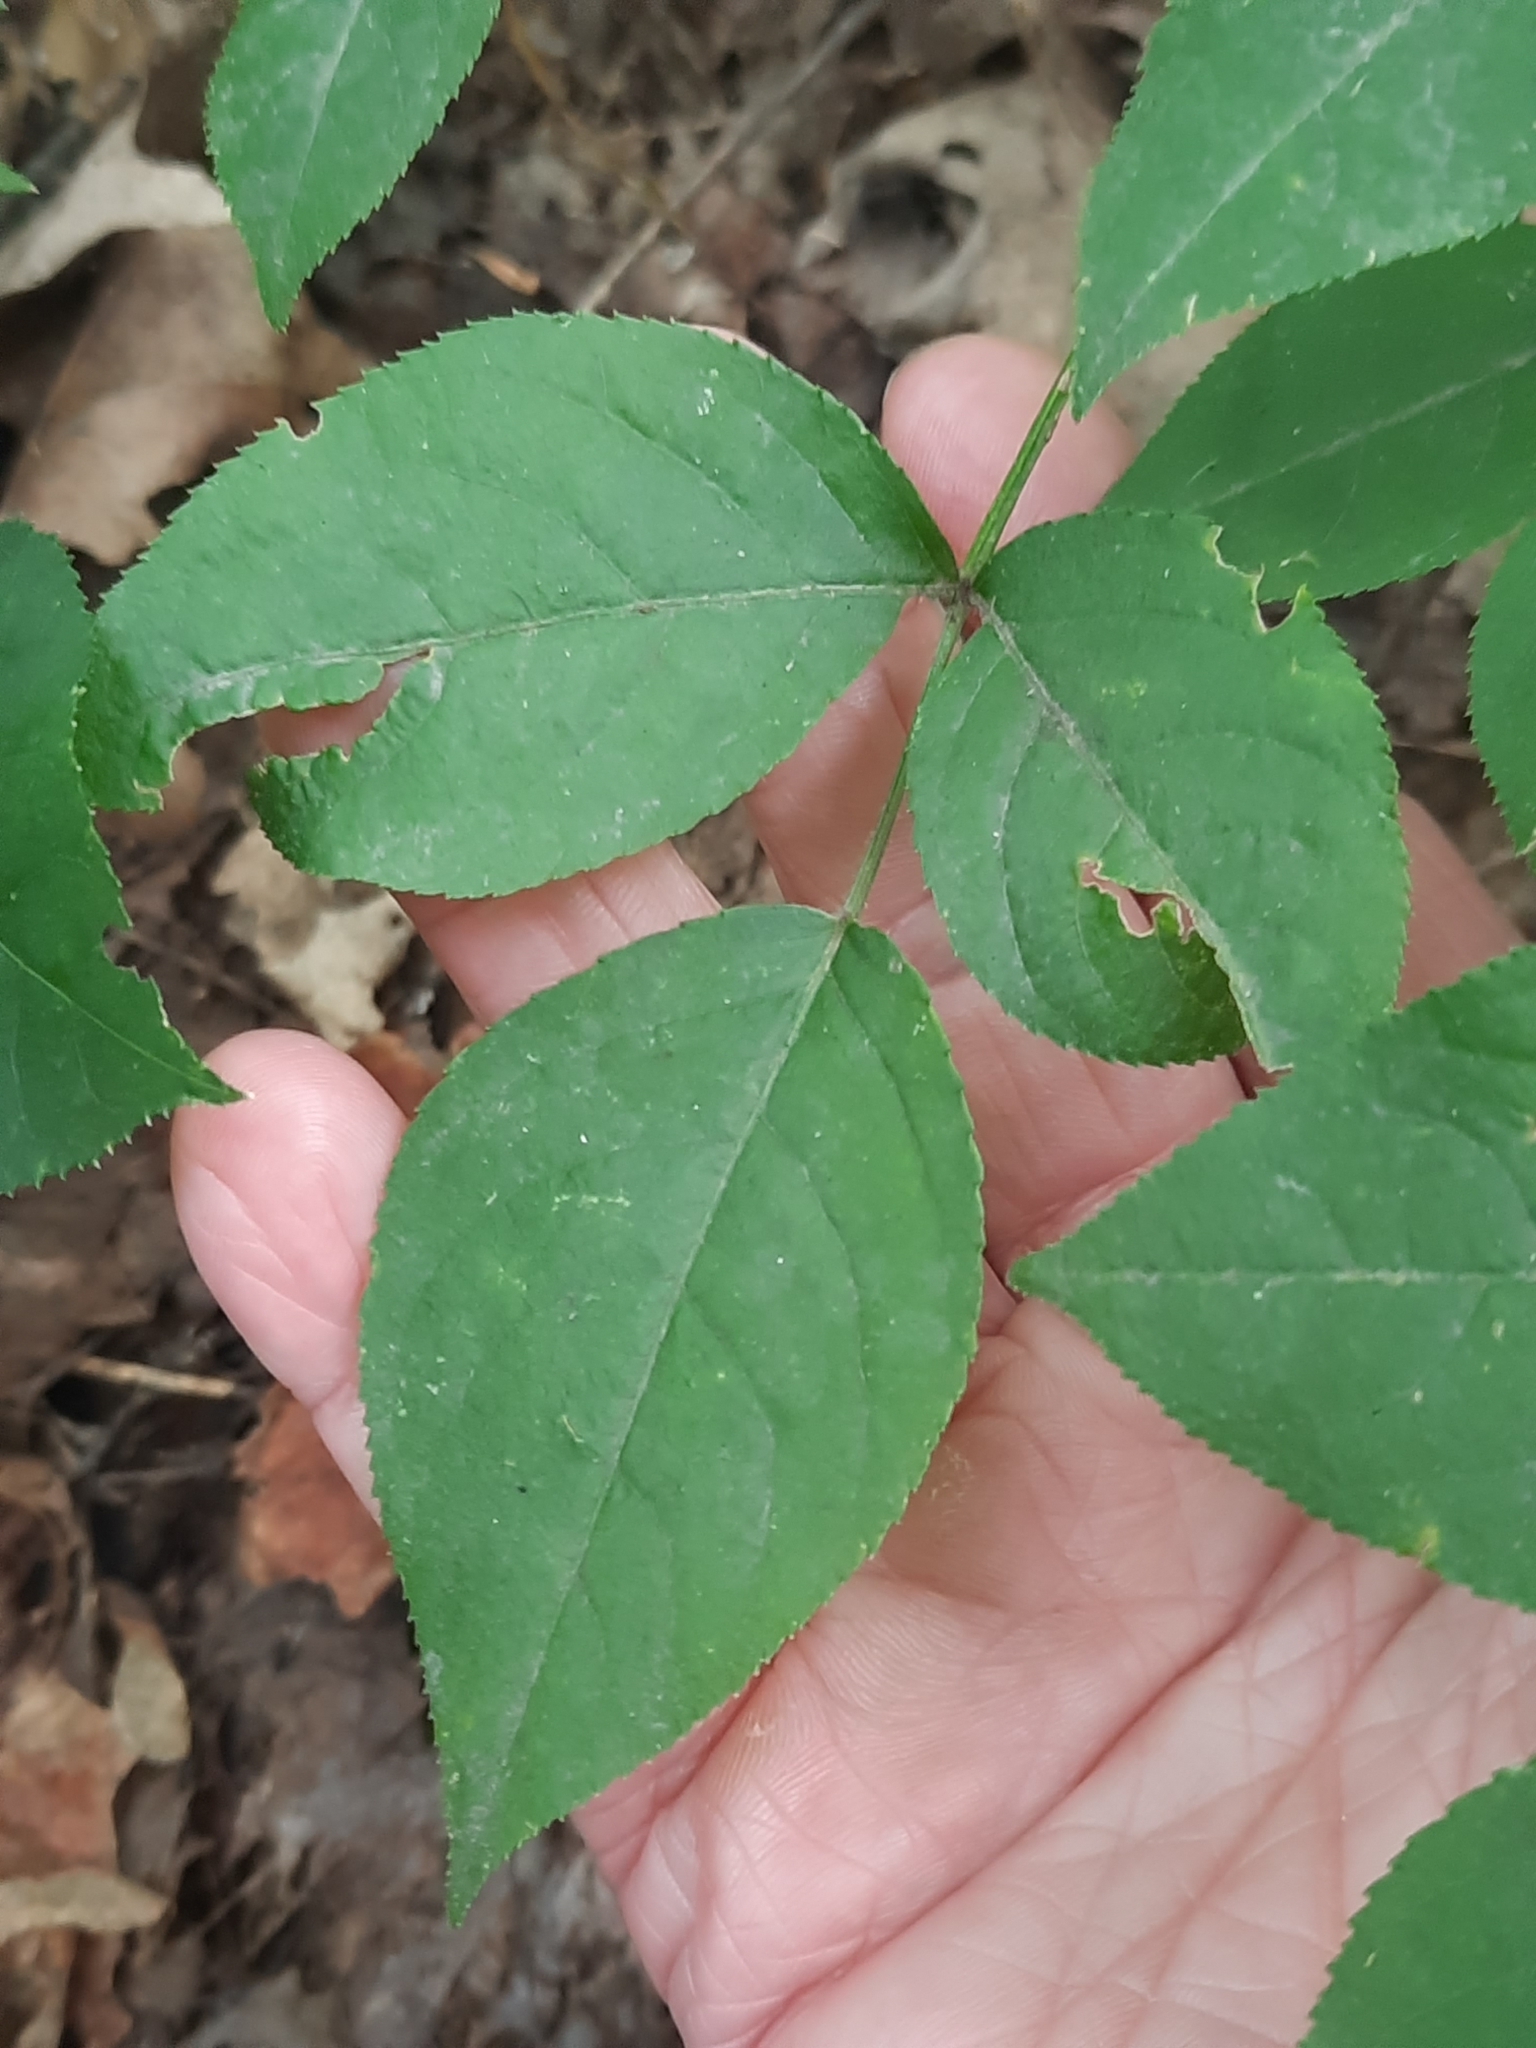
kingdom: Plantae
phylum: Tracheophyta
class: Magnoliopsida
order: Crossosomatales
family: Staphyleaceae
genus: Staphylea
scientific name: Staphylea trifolia
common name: American bladdernut
